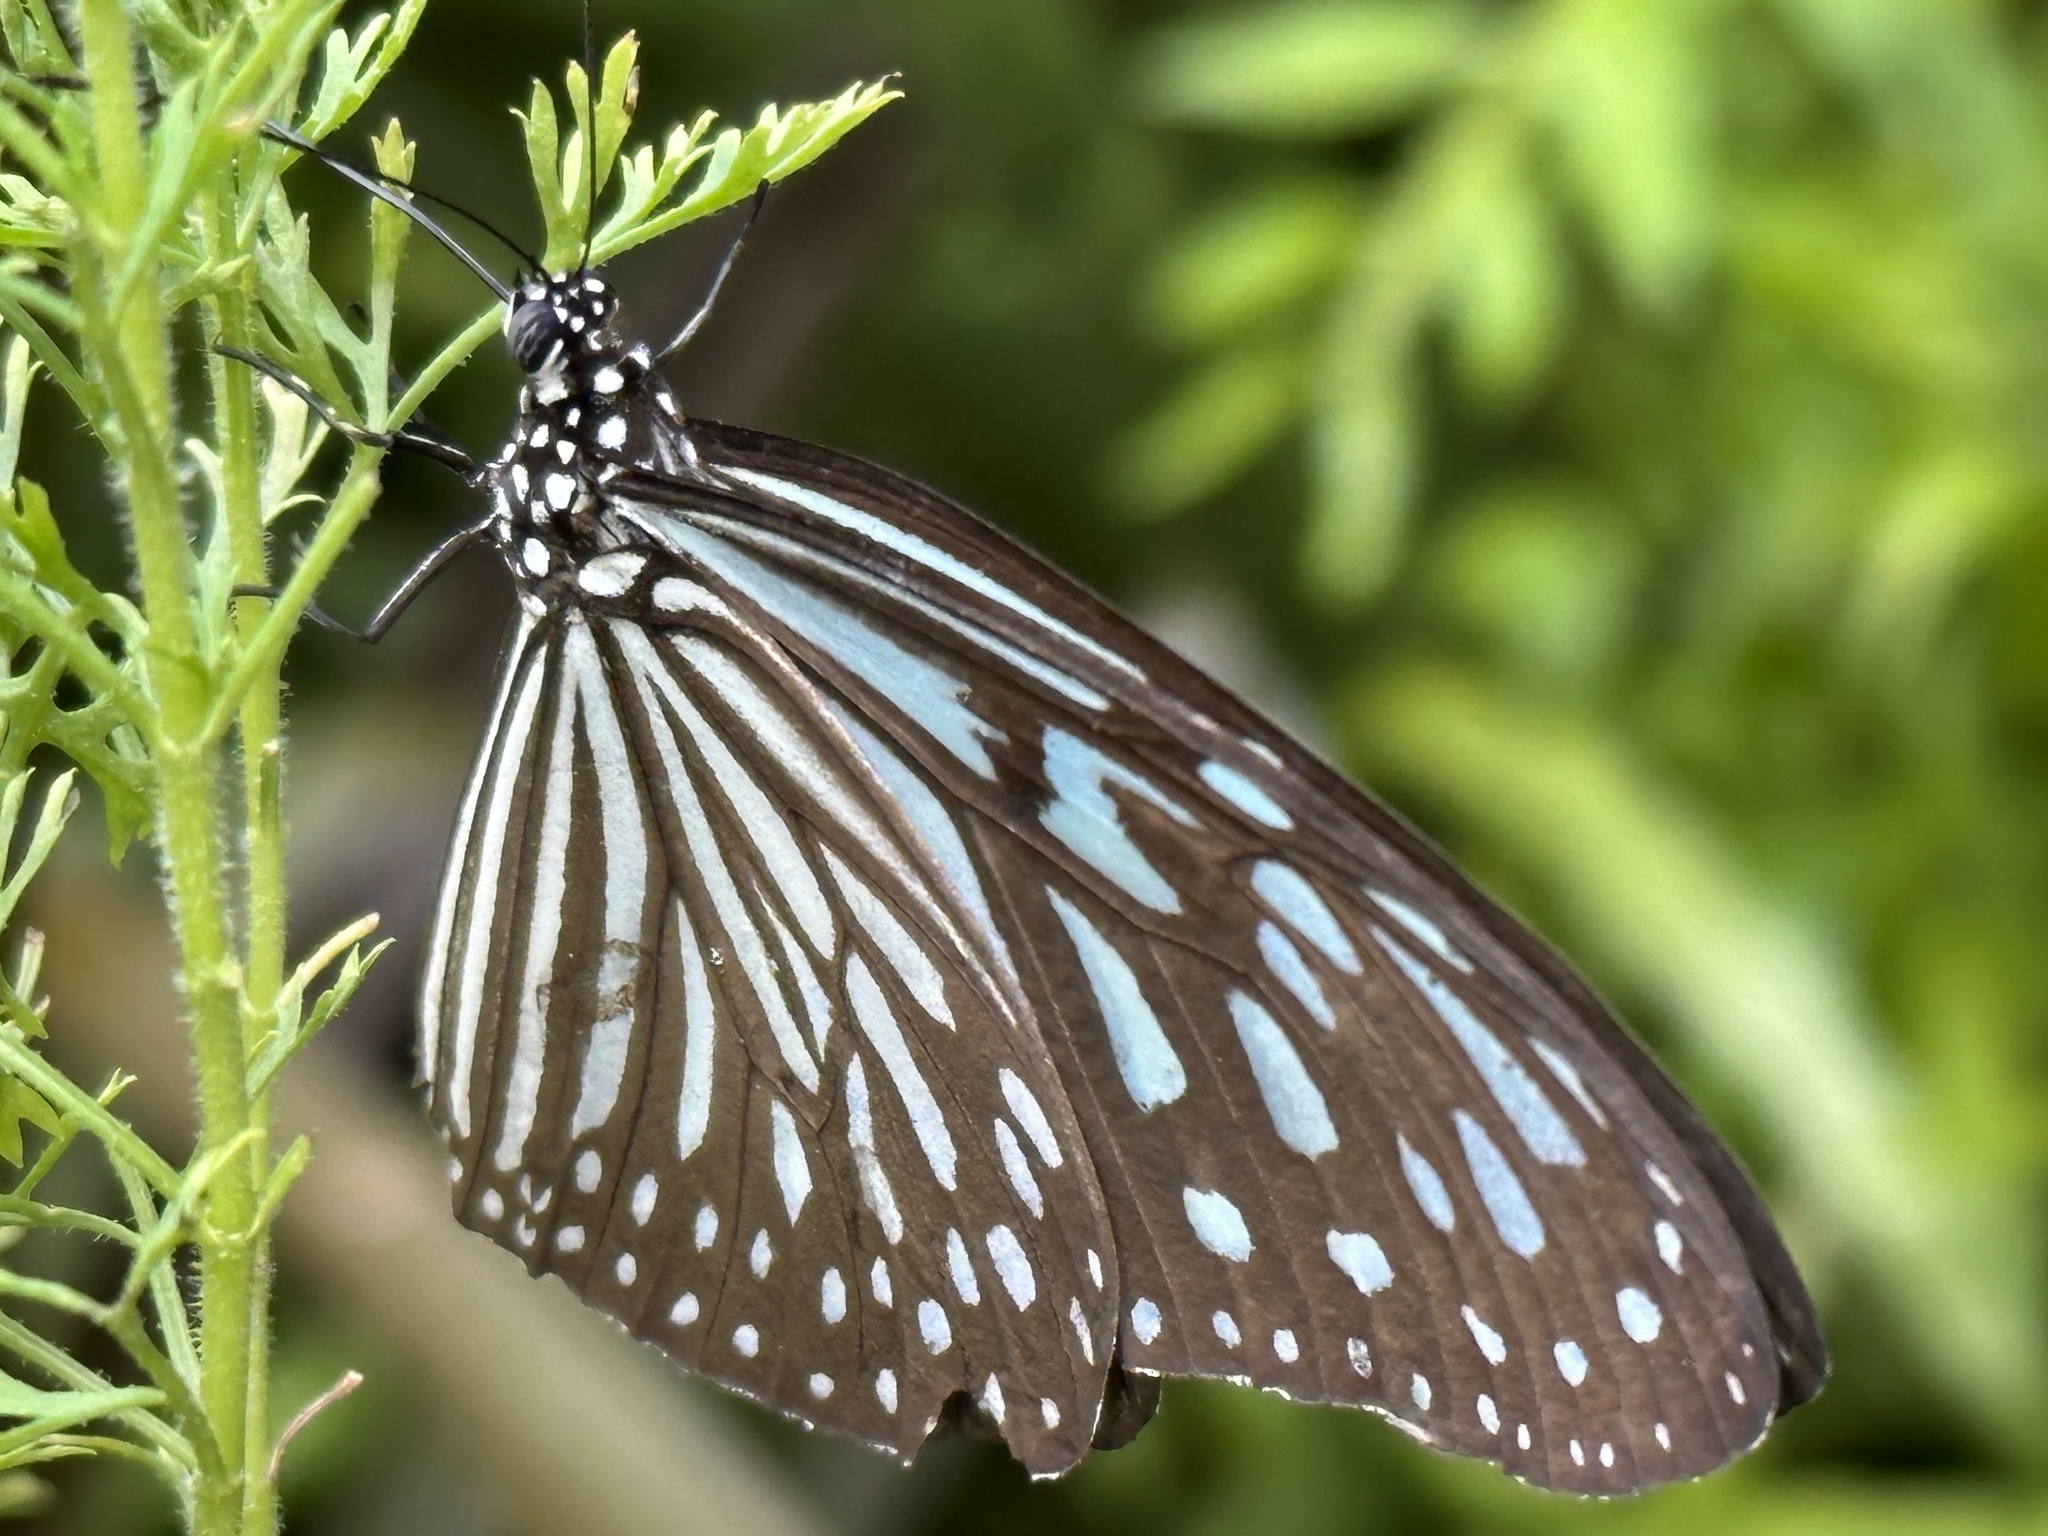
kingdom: Animalia
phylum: Arthropoda
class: Insecta
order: Lepidoptera
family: Nymphalidae
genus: Ideopsis
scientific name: Ideopsis vulgaris
